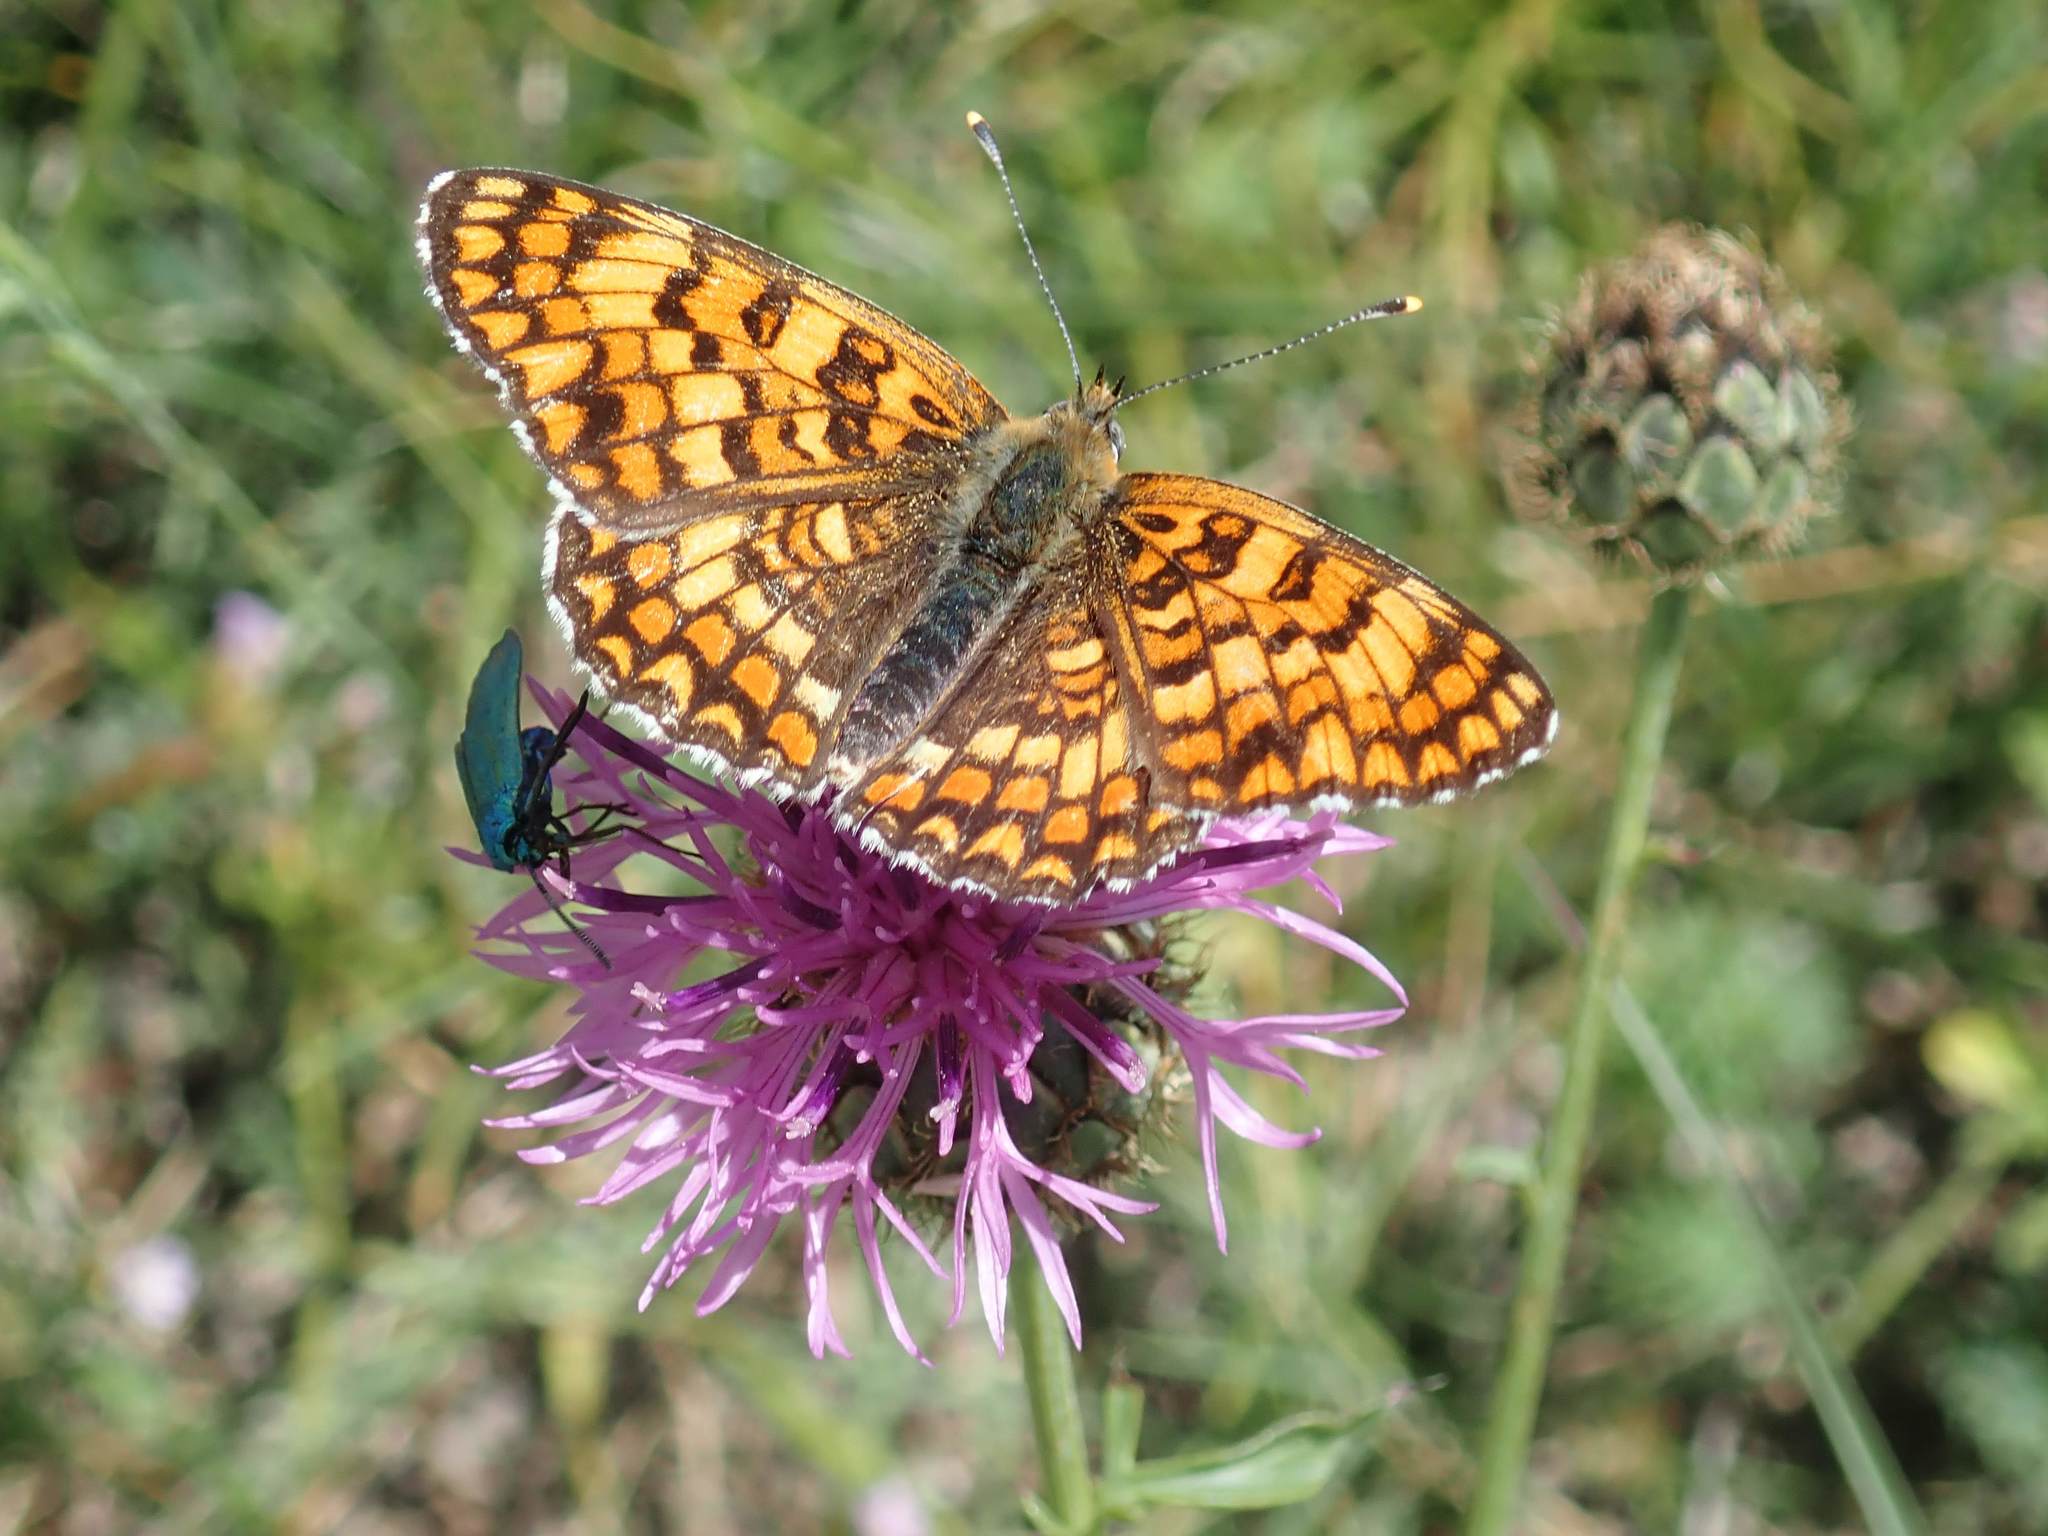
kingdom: Animalia
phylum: Arthropoda
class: Insecta
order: Lepidoptera
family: Nymphalidae
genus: Melitaea
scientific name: Melitaea phoebe
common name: Knapweed fritillary
